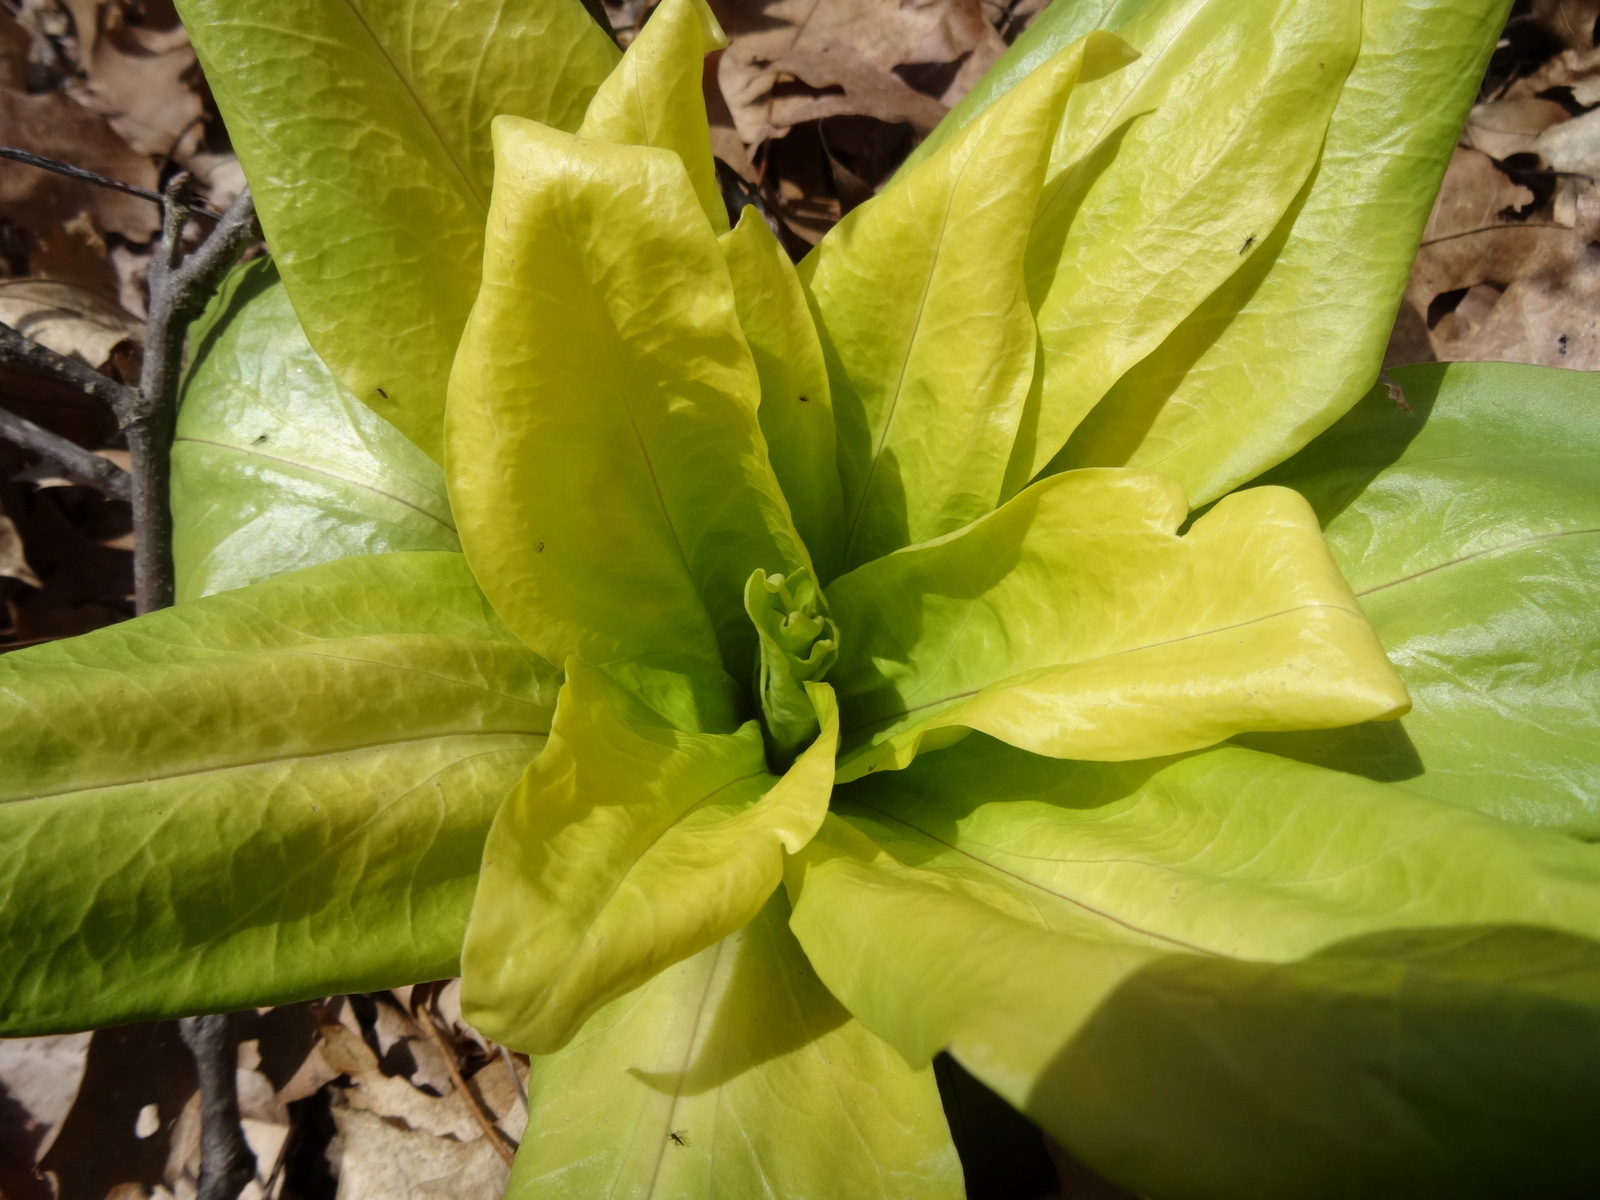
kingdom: Plantae
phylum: Tracheophyta
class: Magnoliopsida
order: Gentianales
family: Gentianaceae
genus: Frasera
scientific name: Frasera caroliniensis
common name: American columbo
